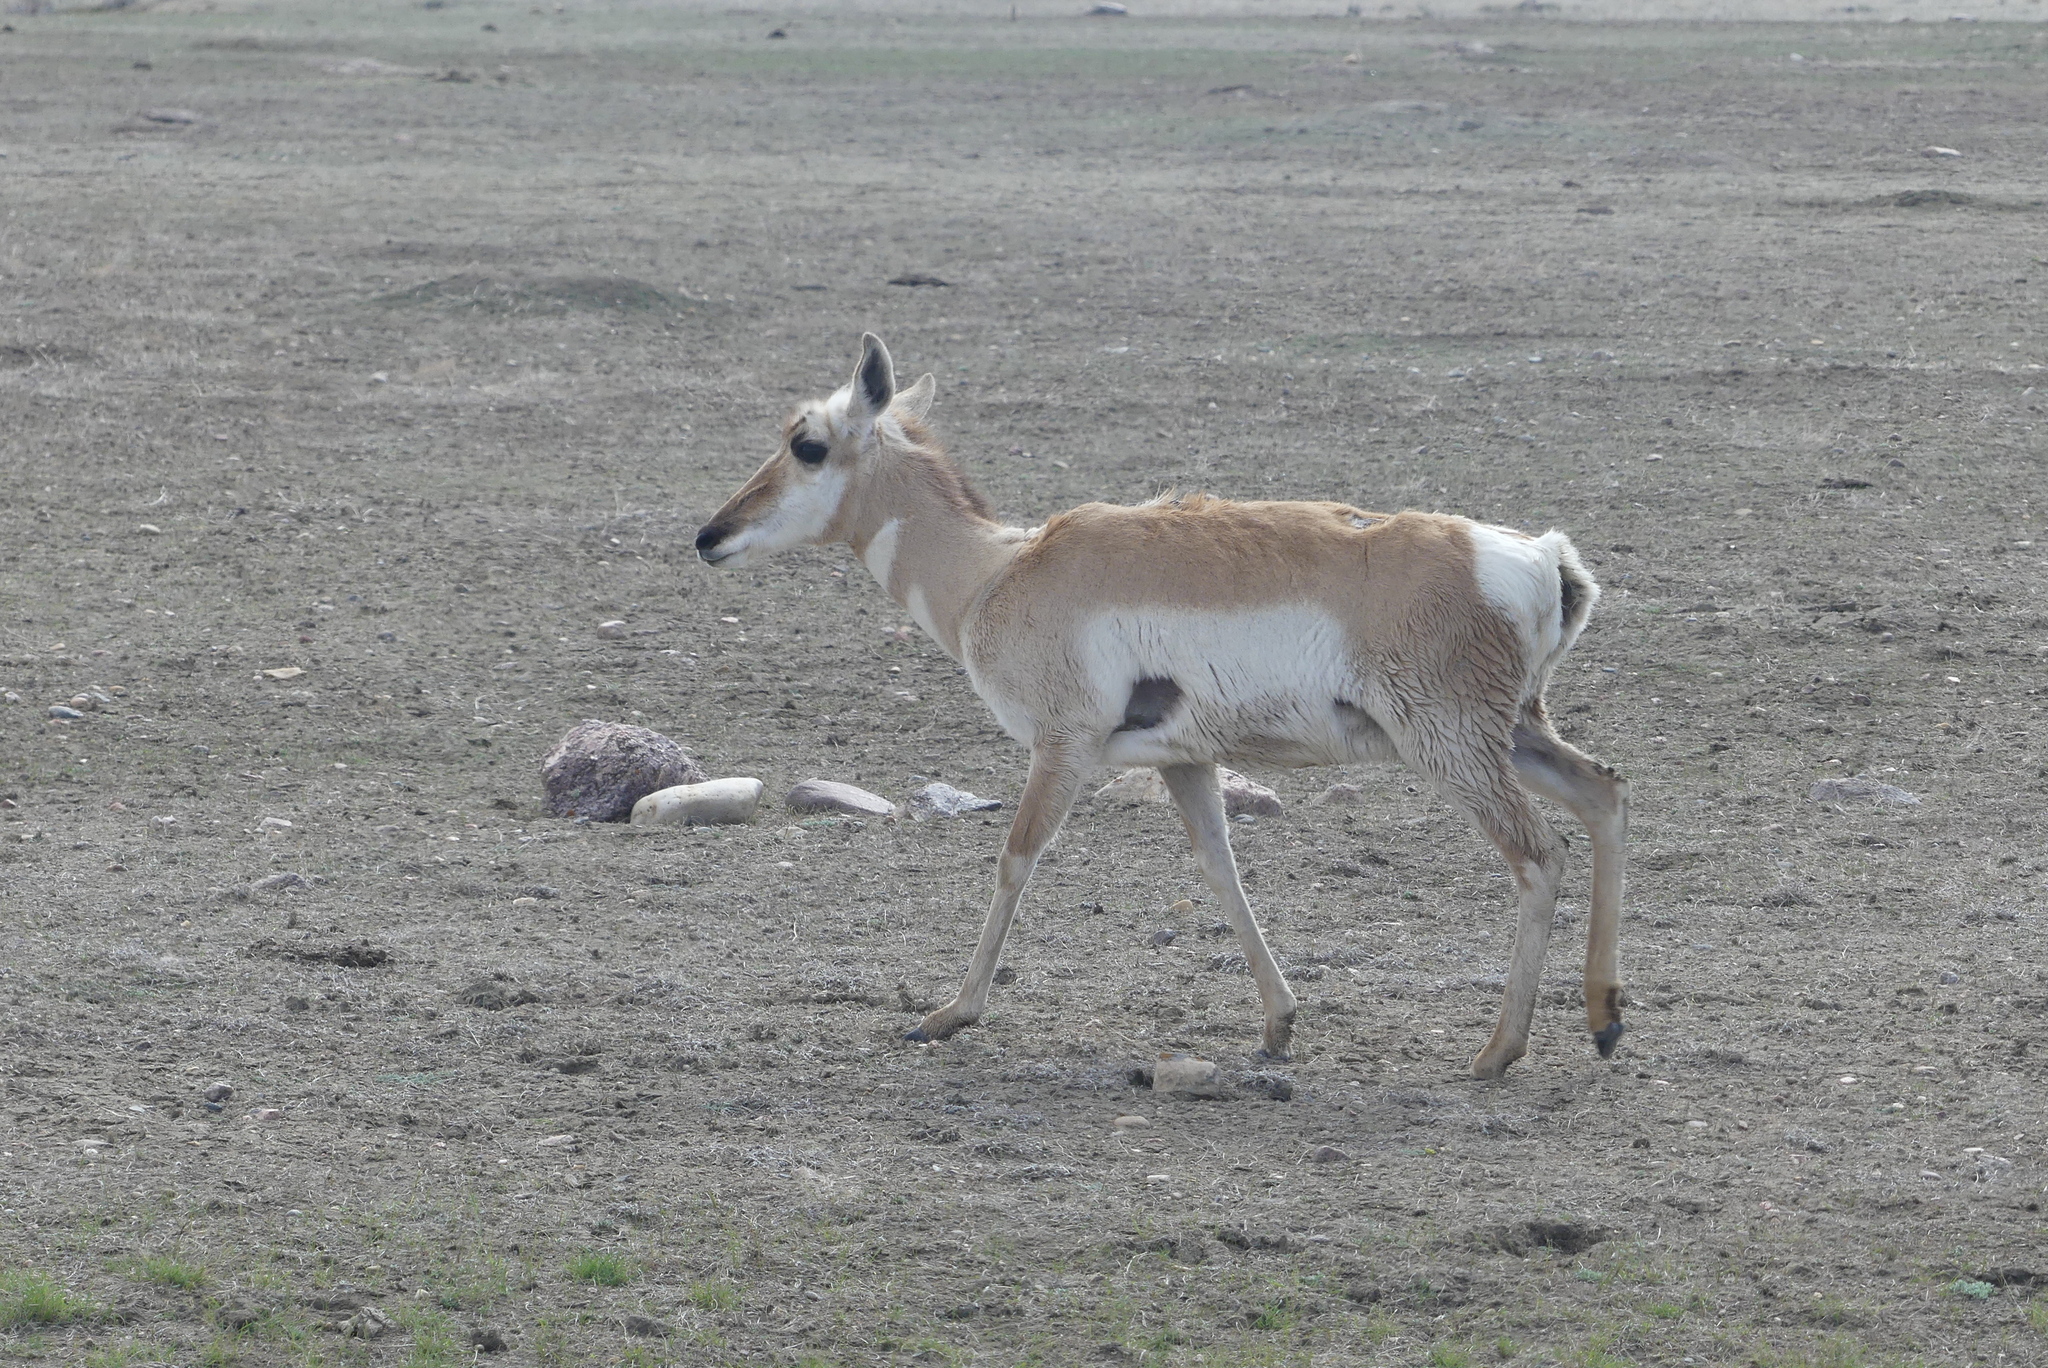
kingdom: Animalia
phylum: Chordata
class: Mammalia
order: Artiodactyla
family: Antilocapridae
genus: Antilocapra
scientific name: Antilocapra americana
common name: Pronghorn
